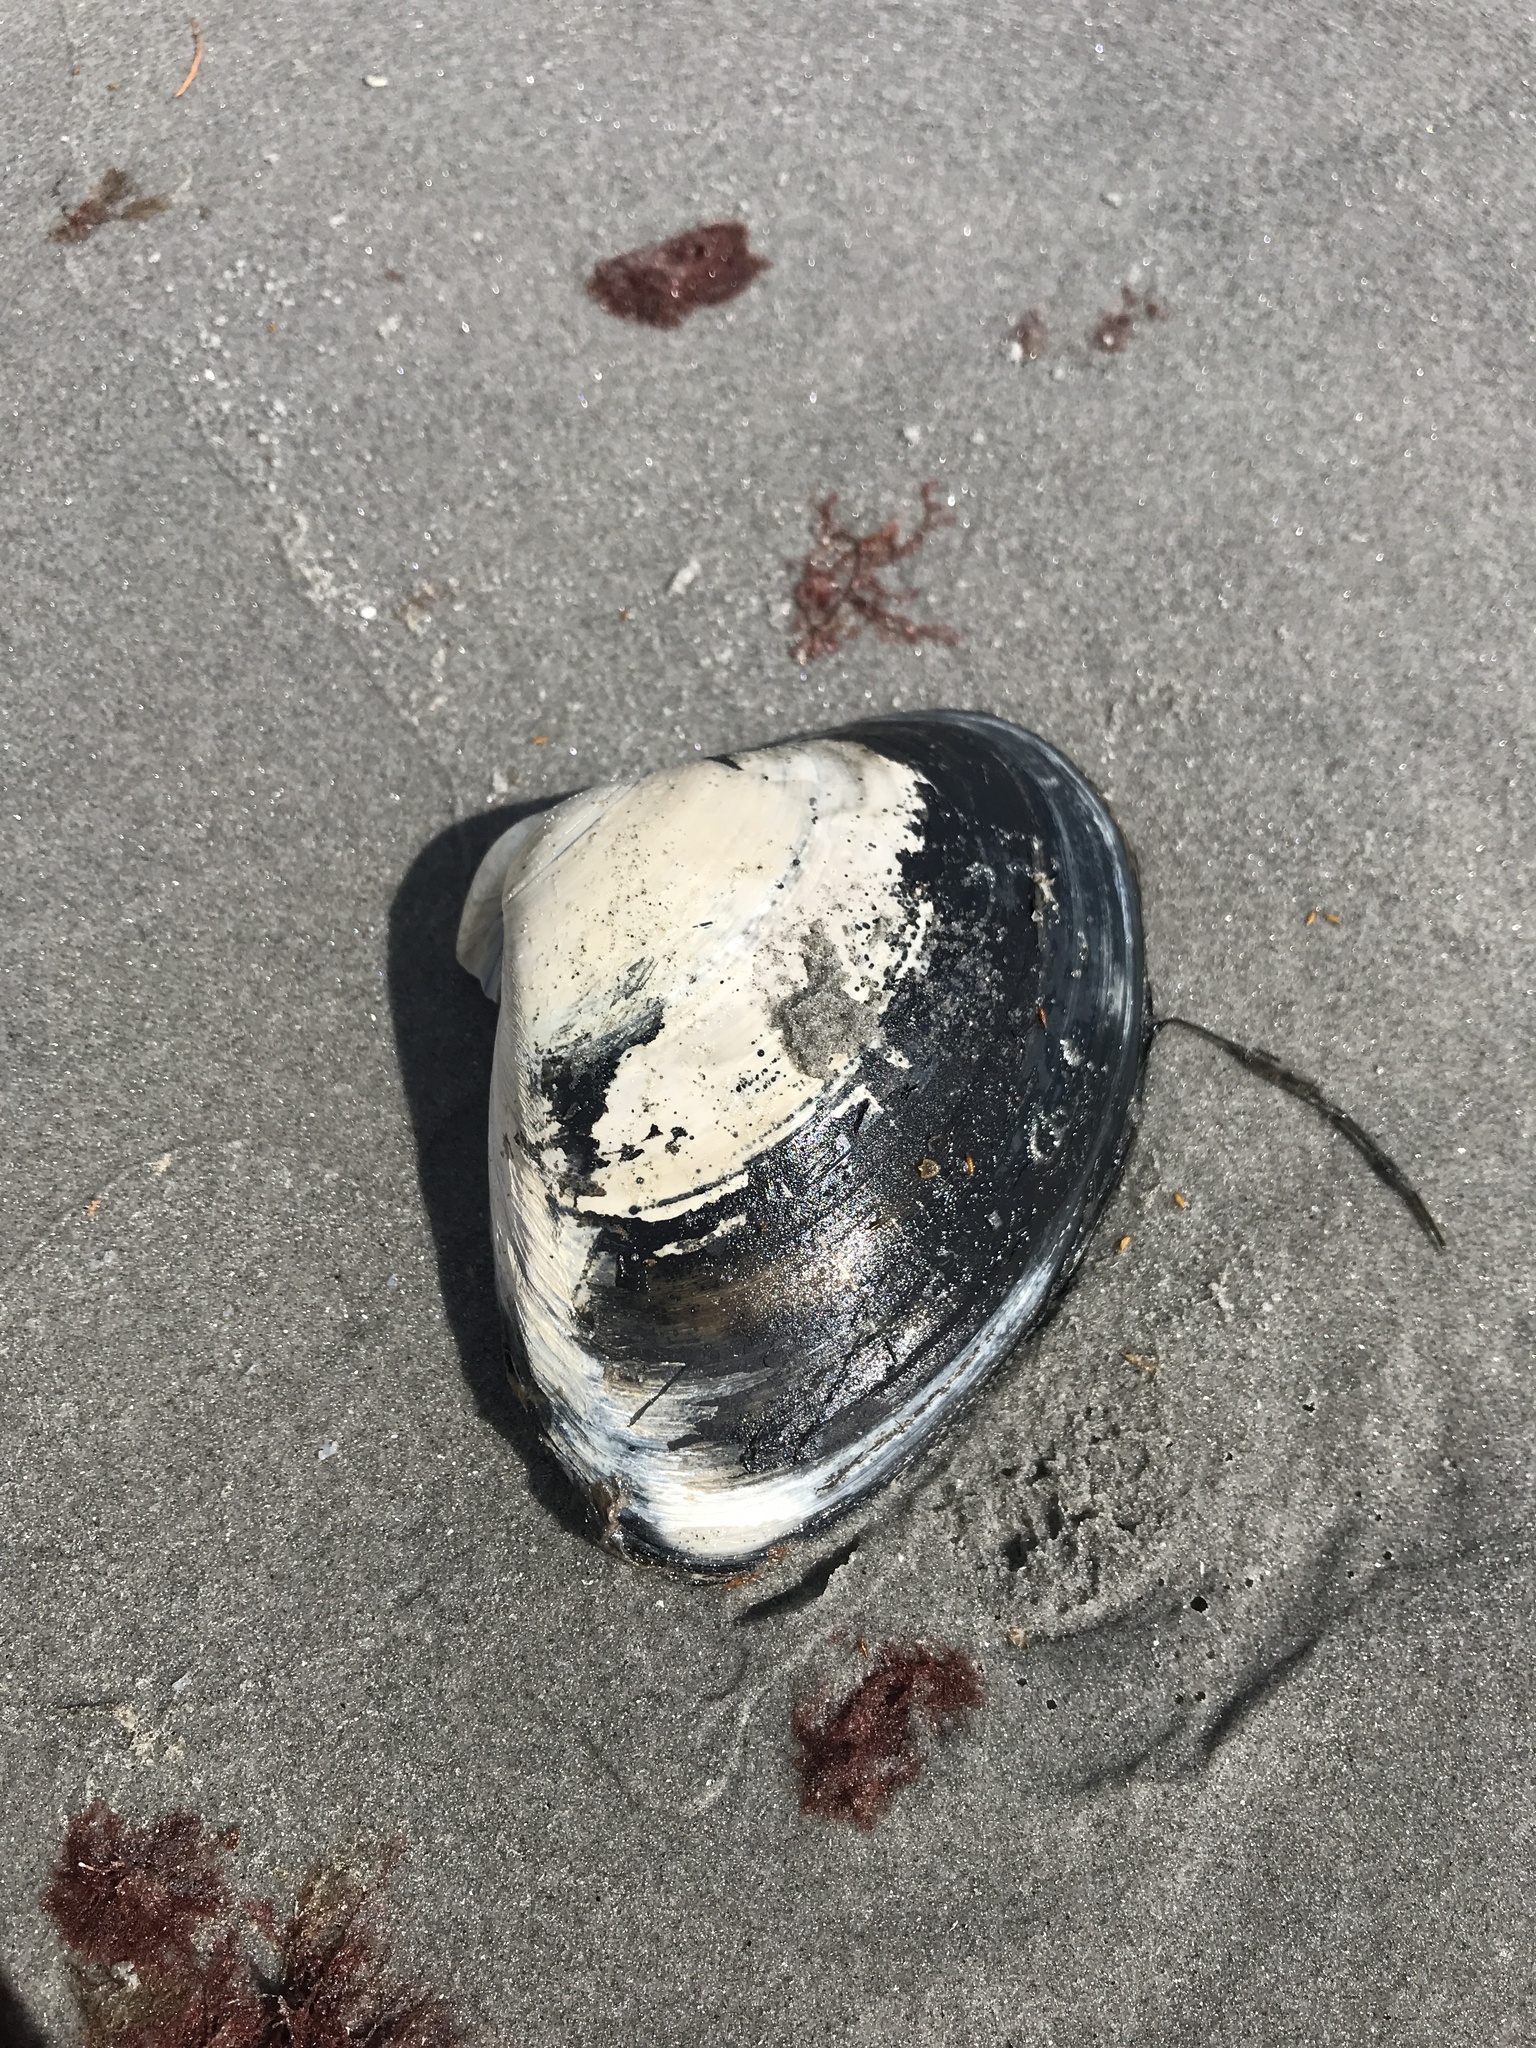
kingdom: Animalia
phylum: Mollusca
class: Bivalvia
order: Venerida
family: Mactridae
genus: Spisula
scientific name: Spisula solidissima
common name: Atlantic surf clam
